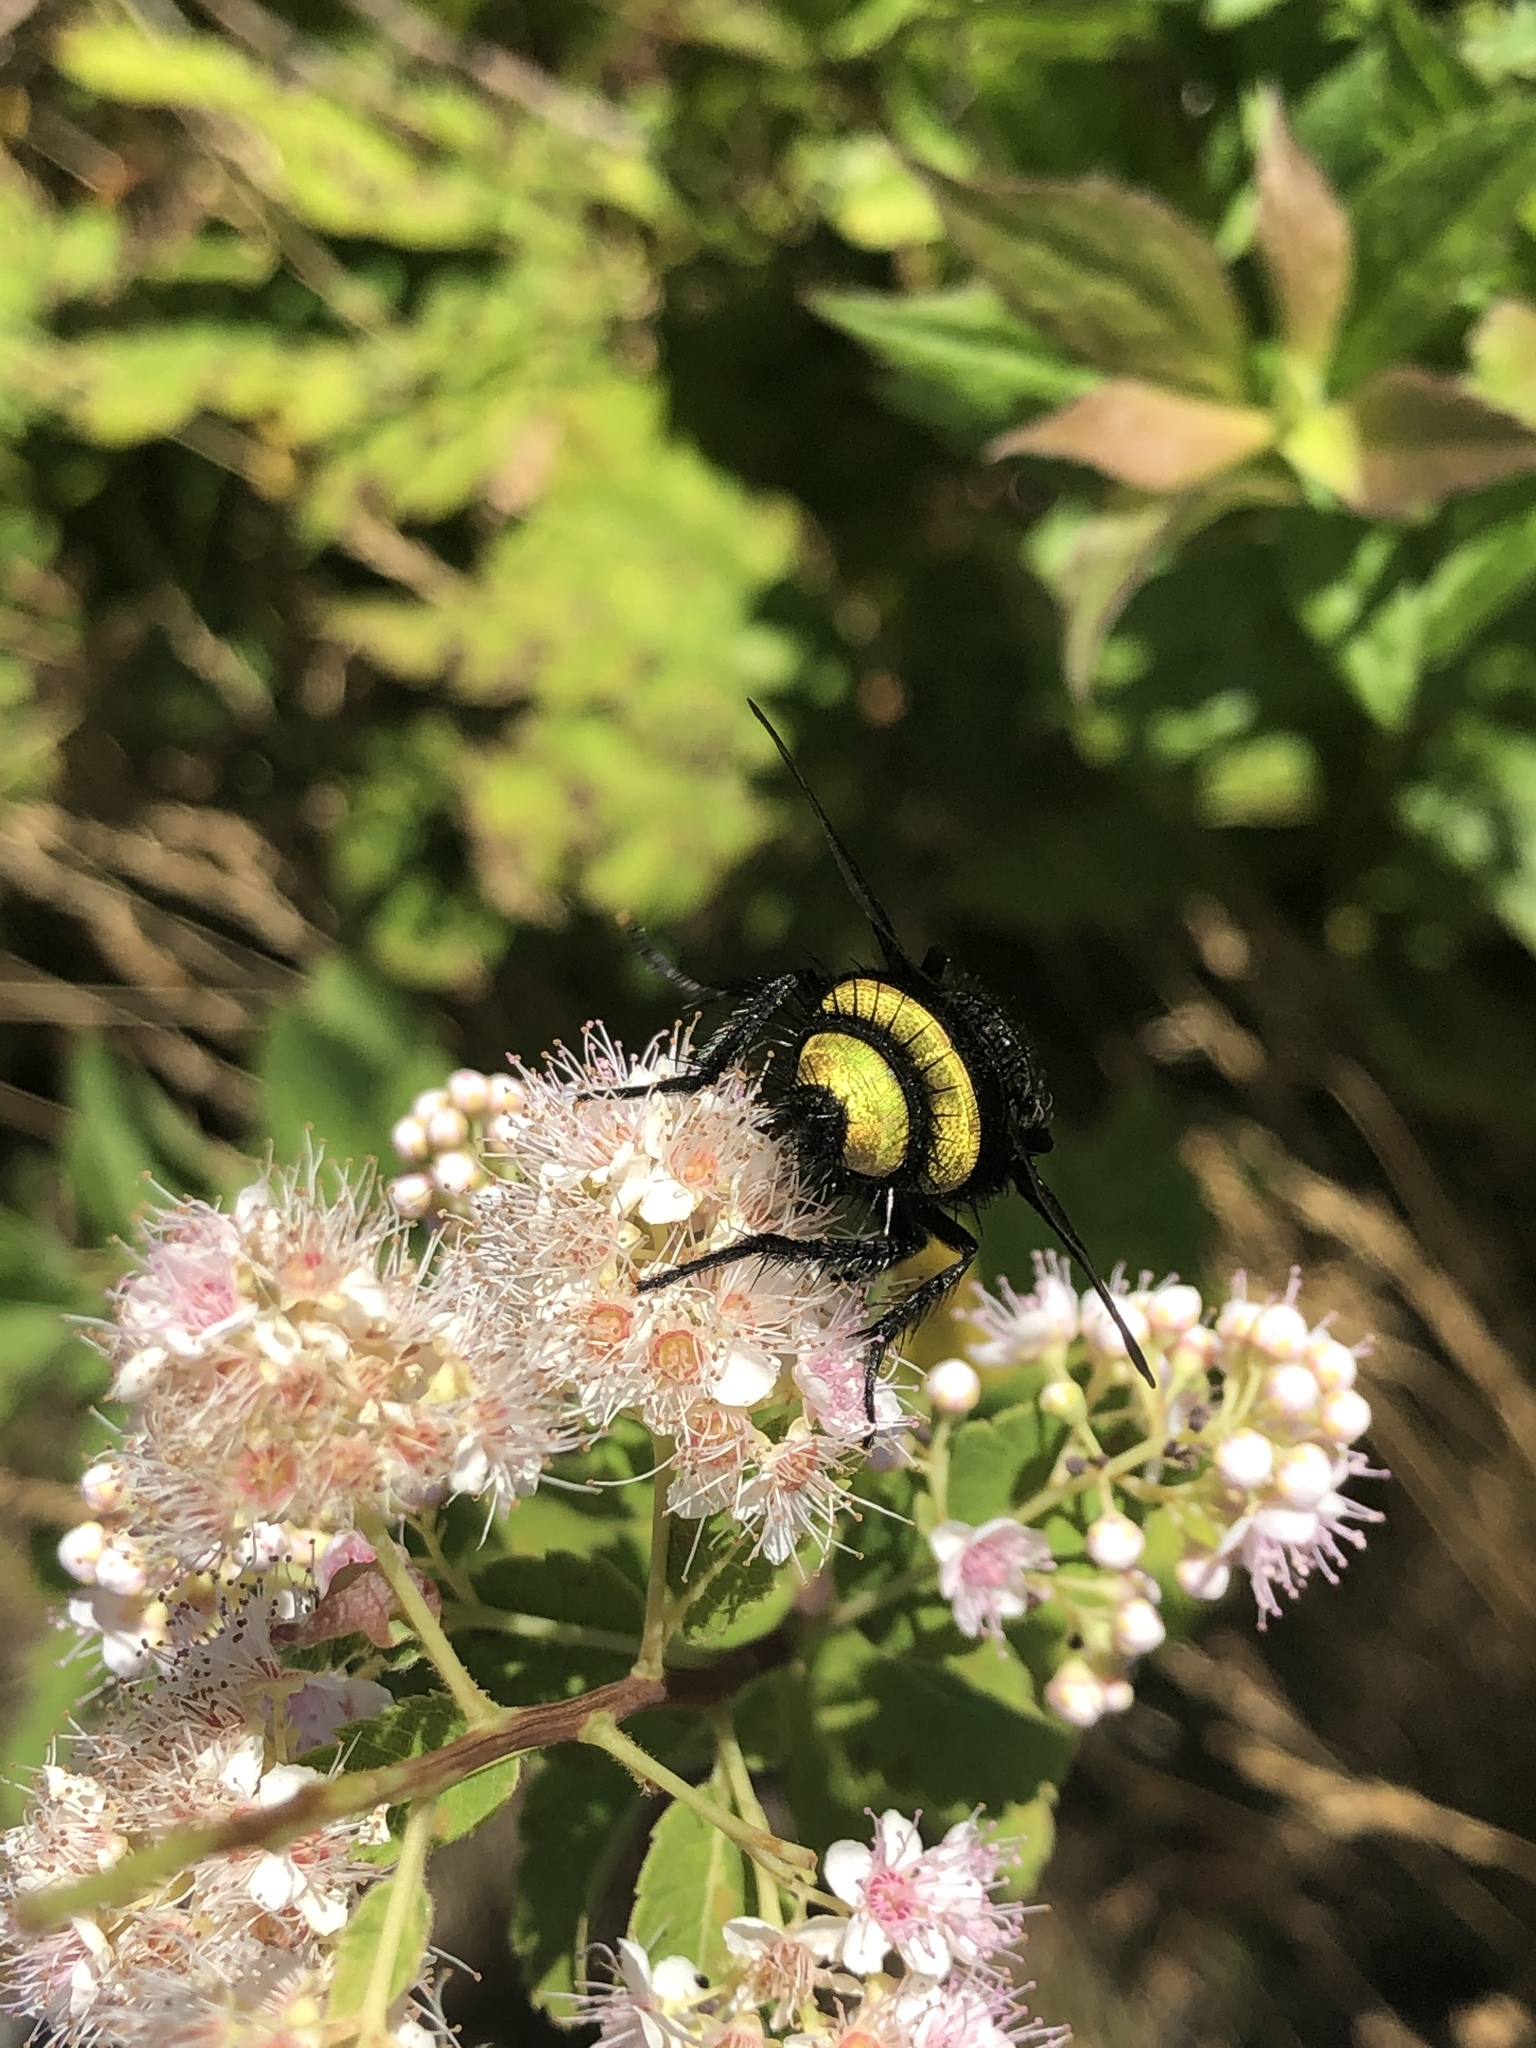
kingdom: Animalia
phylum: Arthropoda
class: Insecta
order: Diptera
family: Tachinidae
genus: Belvosia
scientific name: Belvosia borealis
